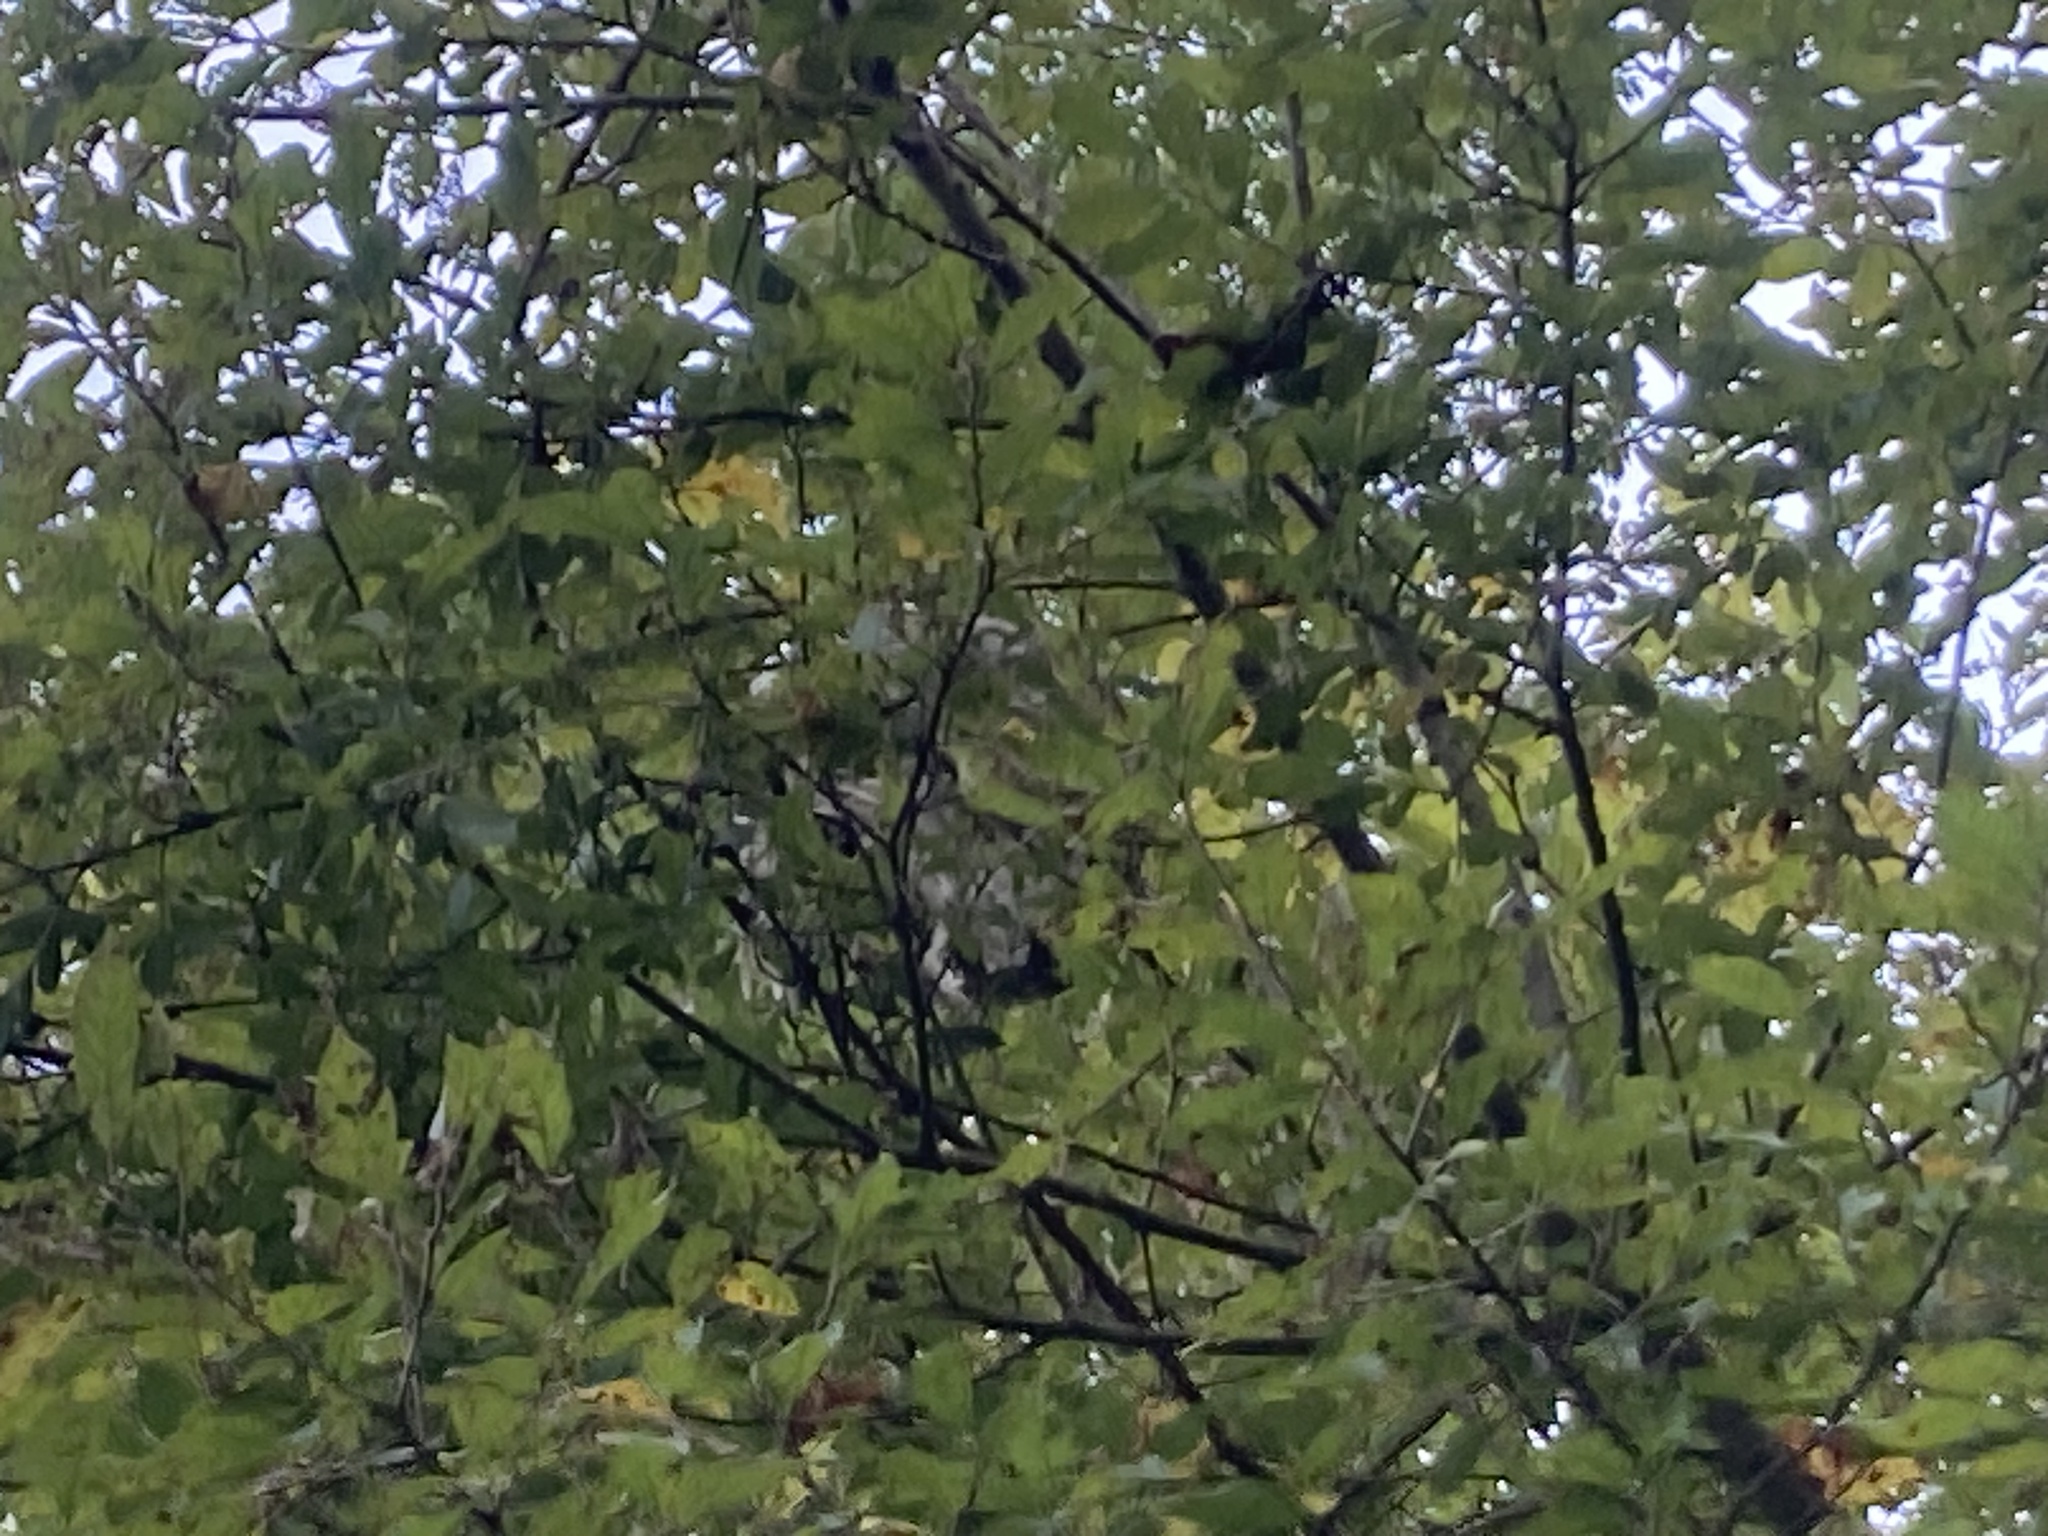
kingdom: Animalia
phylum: Arthropoda
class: Insecta
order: Hymenoptera
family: Vespidae
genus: Dolichovespula
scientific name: Dolichovespula
